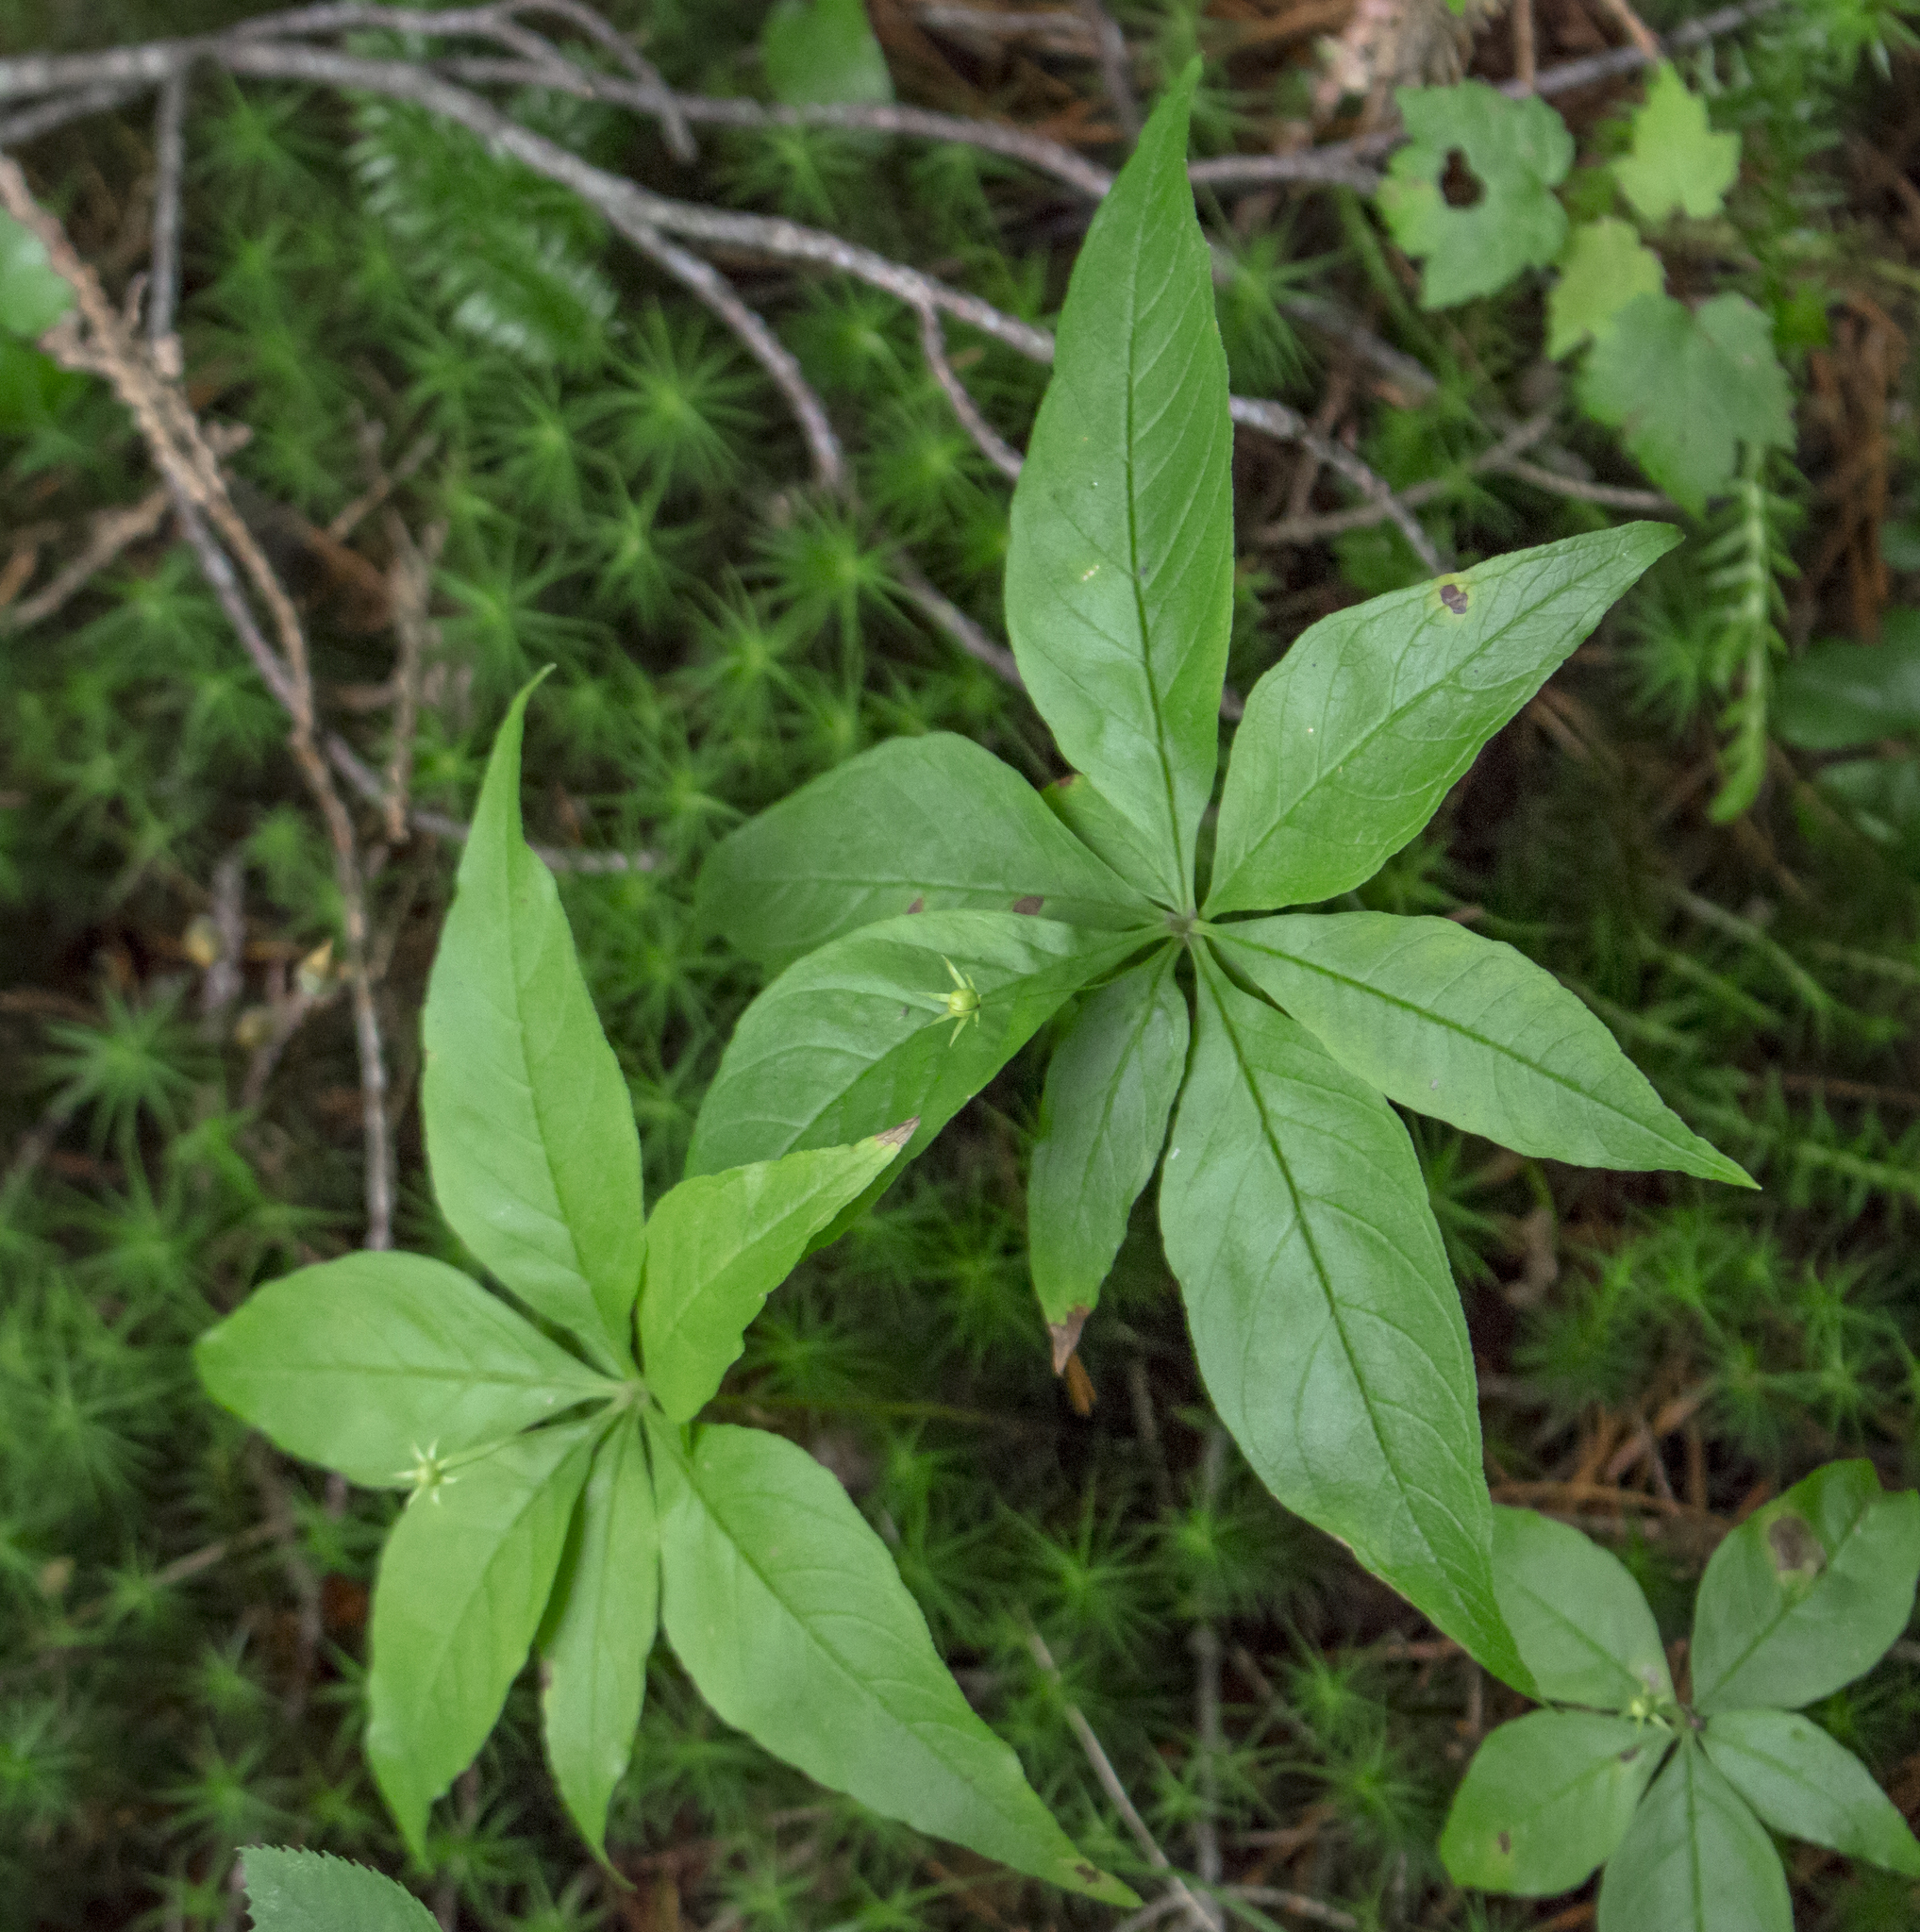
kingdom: Plantae
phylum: Tracheophyta
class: Magnoliopsida
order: Ericales
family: Primulaceae
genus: Lysimachia
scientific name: Lysimachia borealis
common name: American starflower
